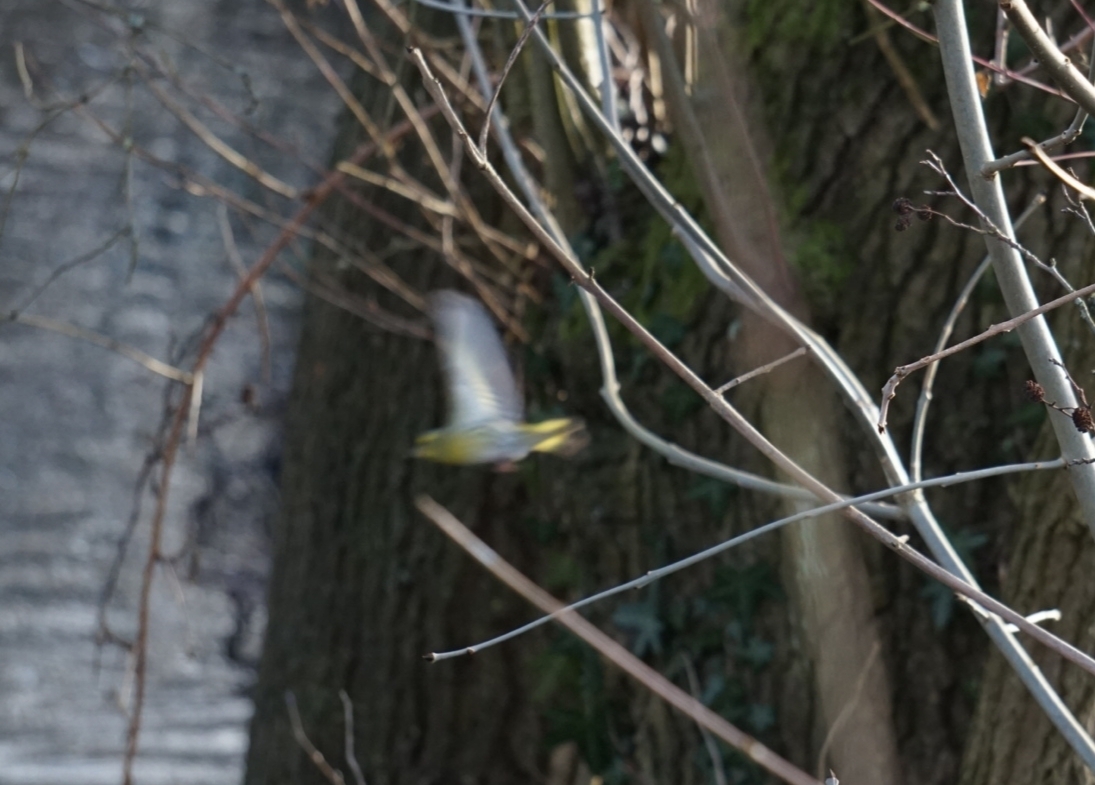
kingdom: Animalia
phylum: Chordata
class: Aves
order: Passeriformes
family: Fringillidae
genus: Spinus
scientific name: Spinus spinus
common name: Eurasian siskin
